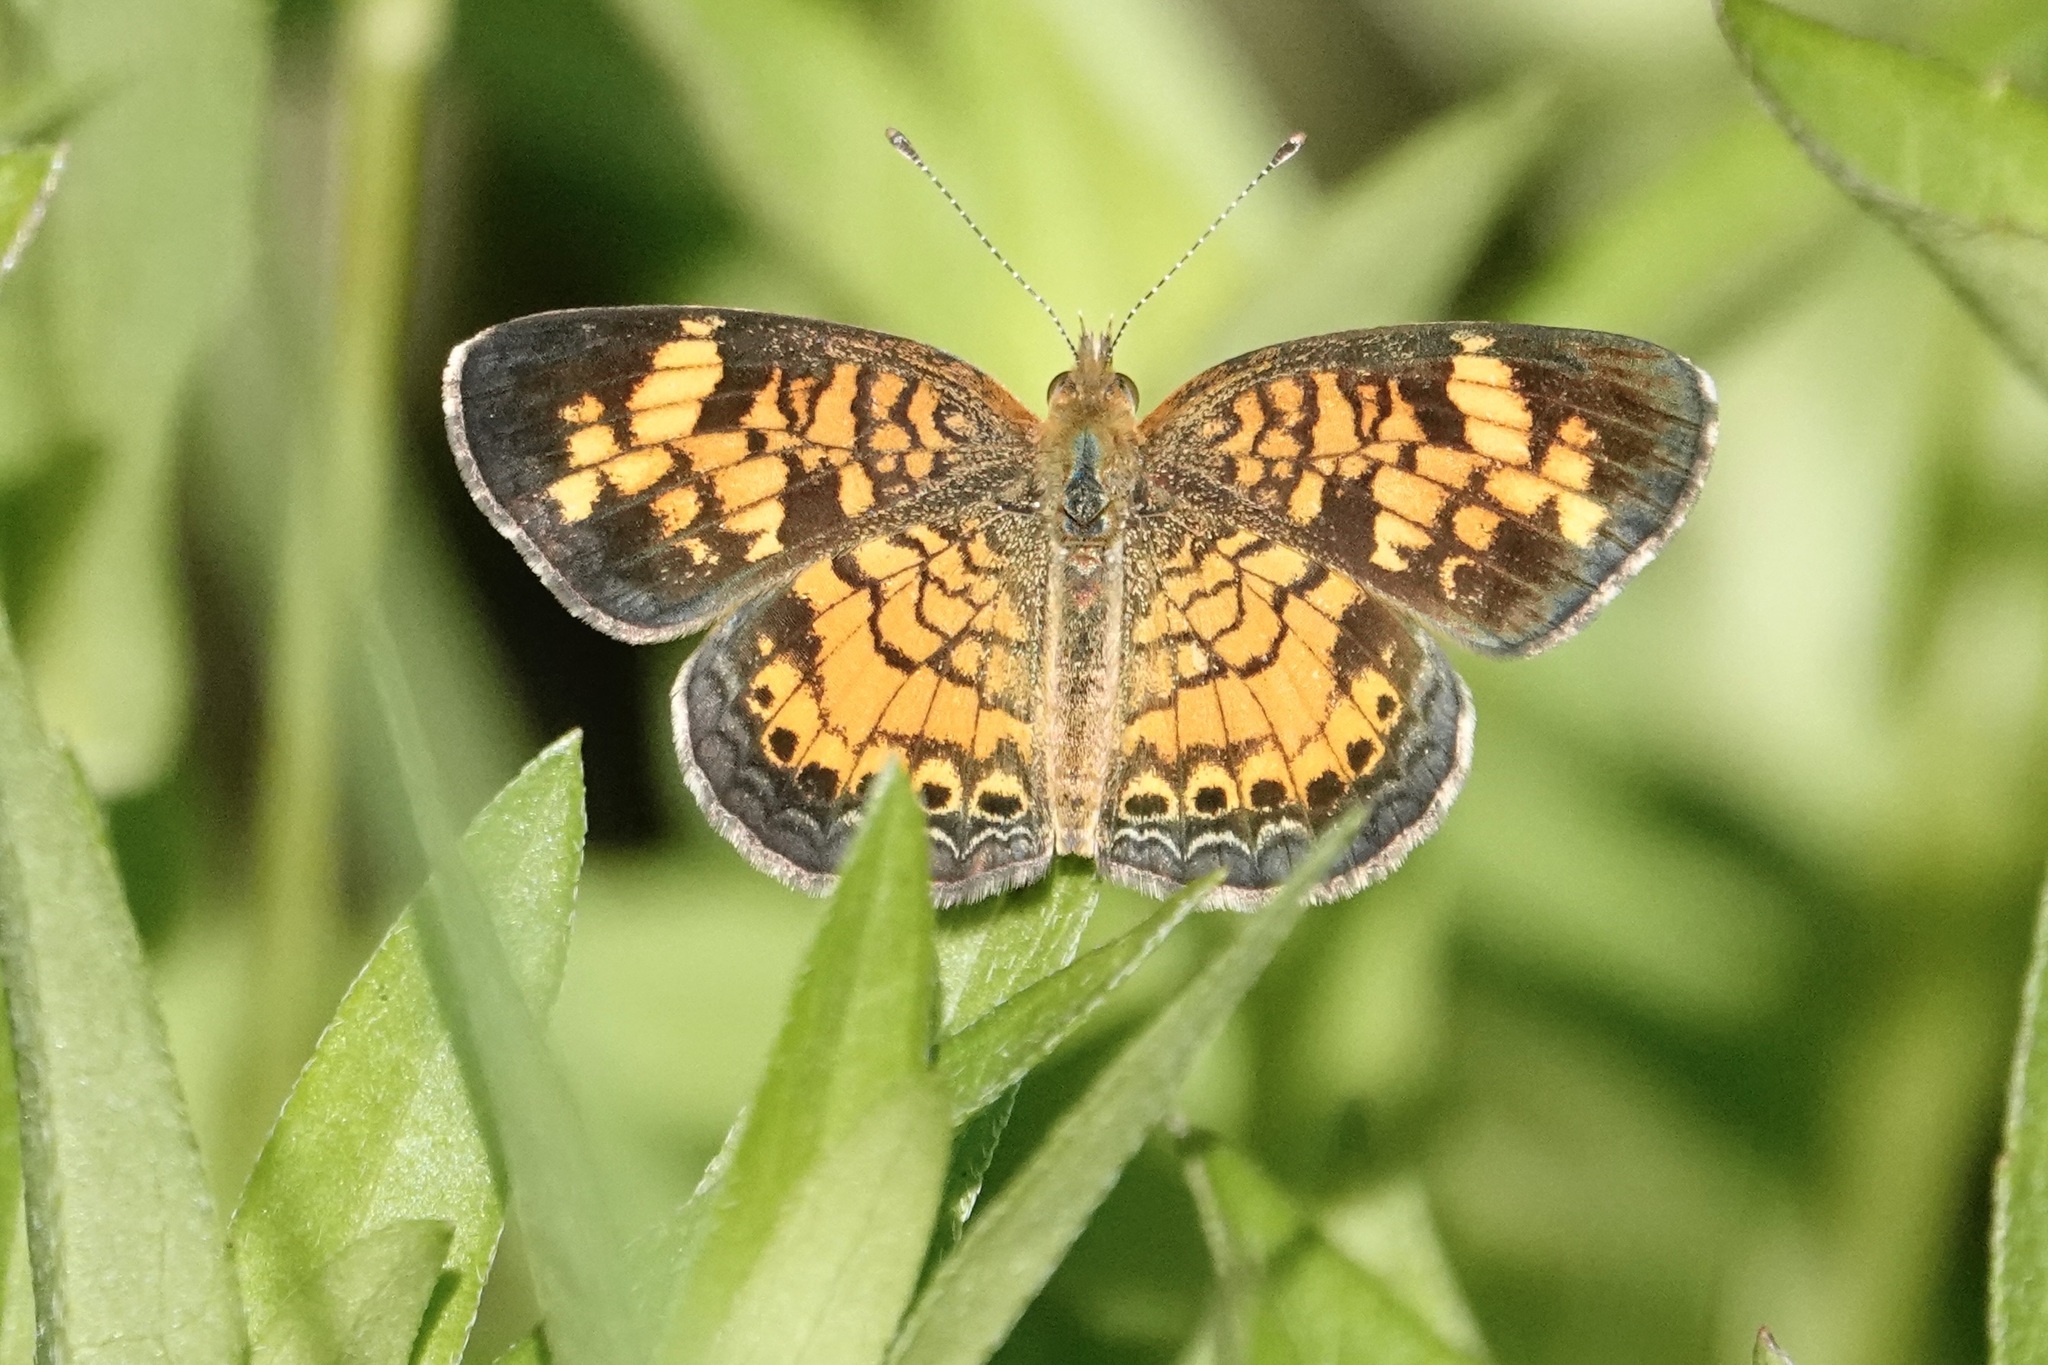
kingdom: Animalia
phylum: Arthropoda
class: Insecta
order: Lepidoptera
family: Nymphalidae
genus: Phyciodes
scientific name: Phyciodes tharos
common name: Pearl crescent
